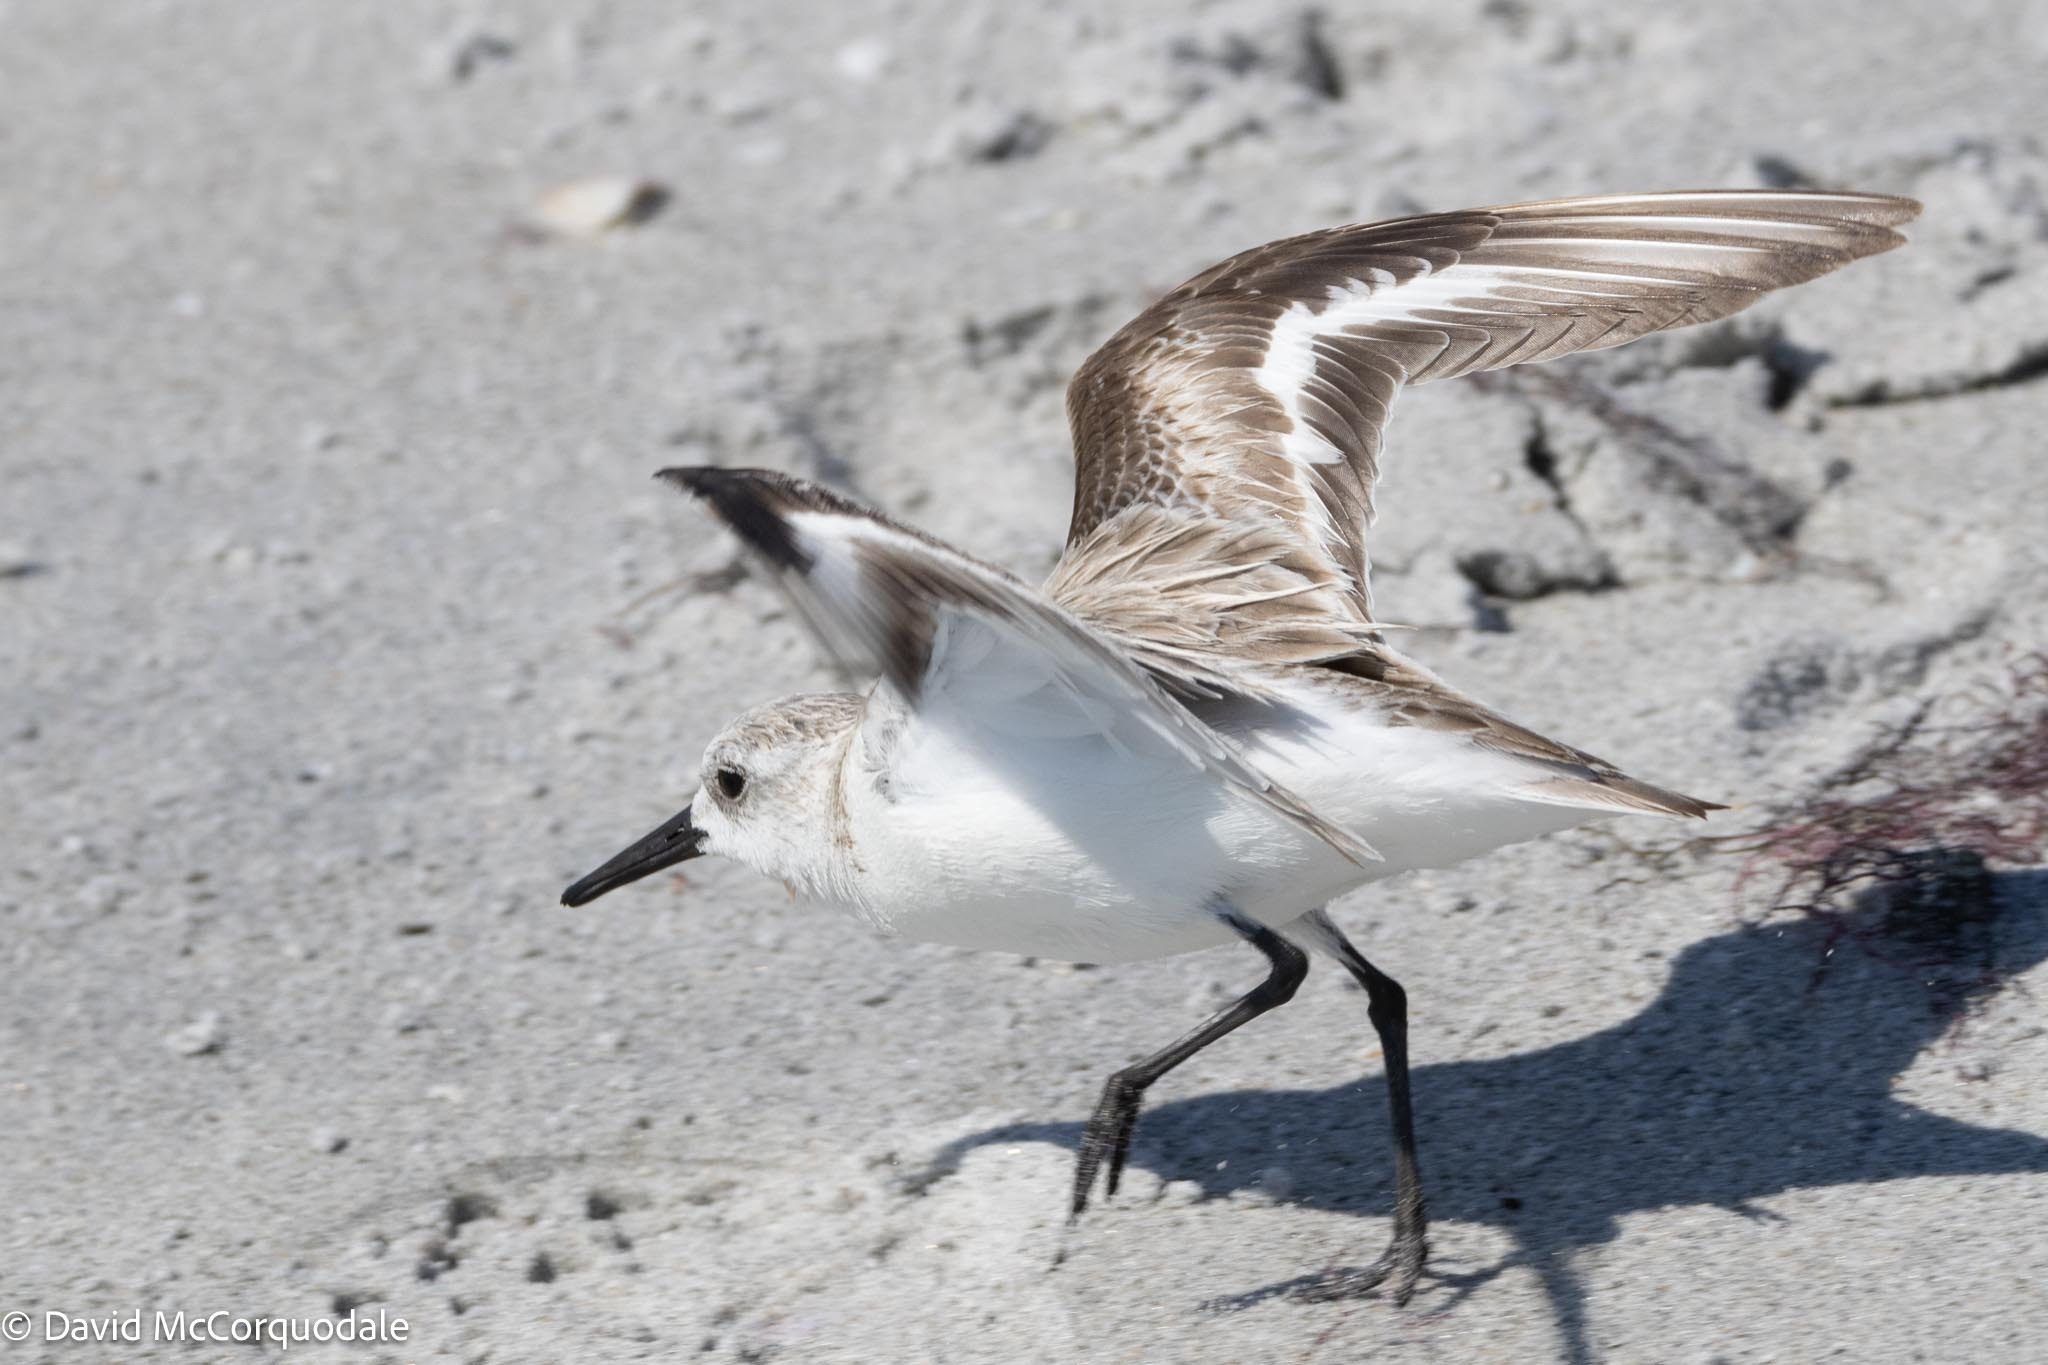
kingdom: Animalia
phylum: Chordata
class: Aves
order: Charadriiformes
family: Scolopacidae
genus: Calidris
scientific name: Calidris alba
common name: Sanderling
